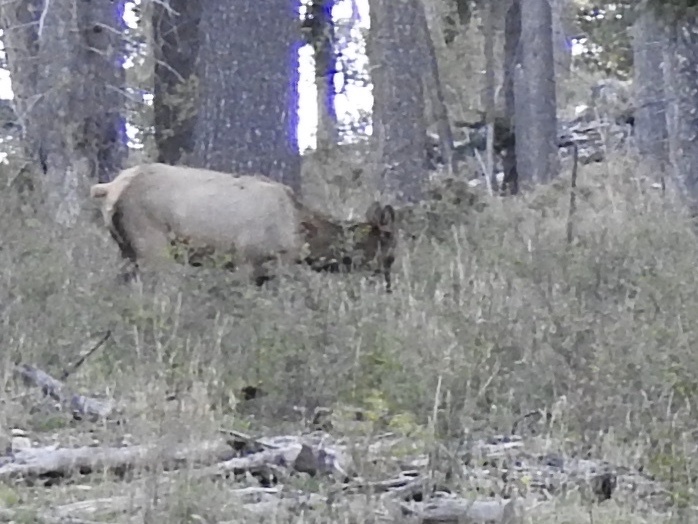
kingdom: Animalia
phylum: Chordata
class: Mammalia
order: Artiodactyla
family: Cervidae
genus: Cervus
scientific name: Cervus elaphus
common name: Red deer
